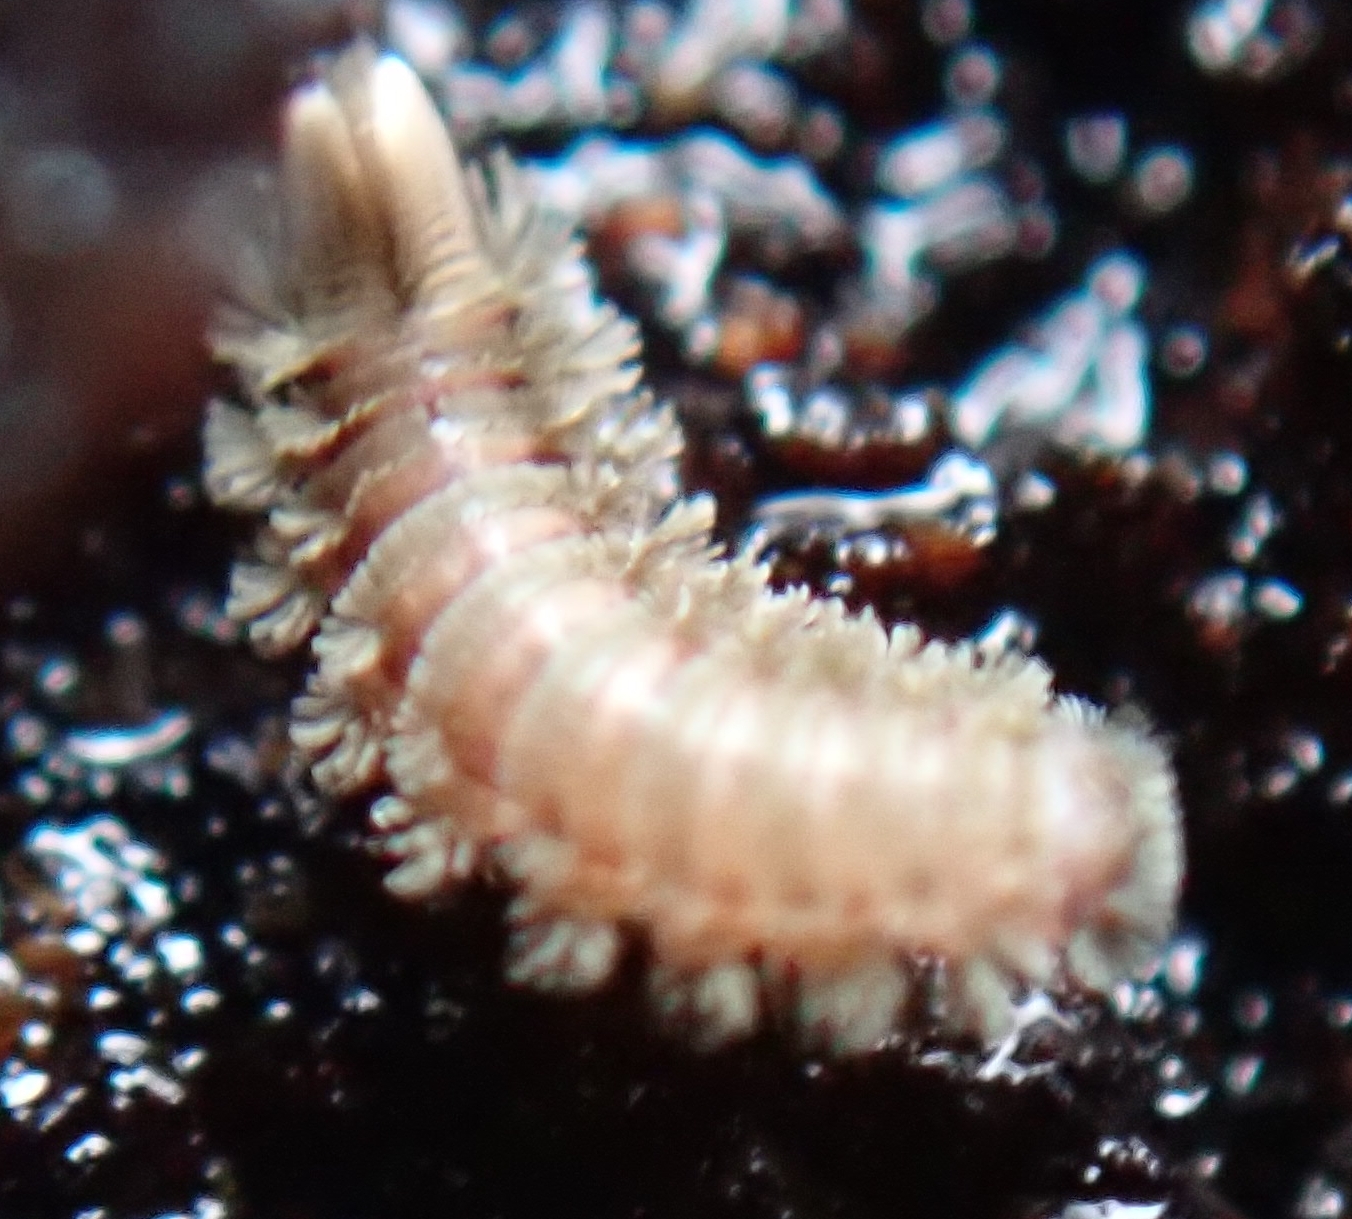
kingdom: Animalia
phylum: Arthropoda
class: Diplopoda
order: Polyxenida
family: Polyxenidae
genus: Polyxenus
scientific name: Polyxenus lagurus
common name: Bristly millipede
